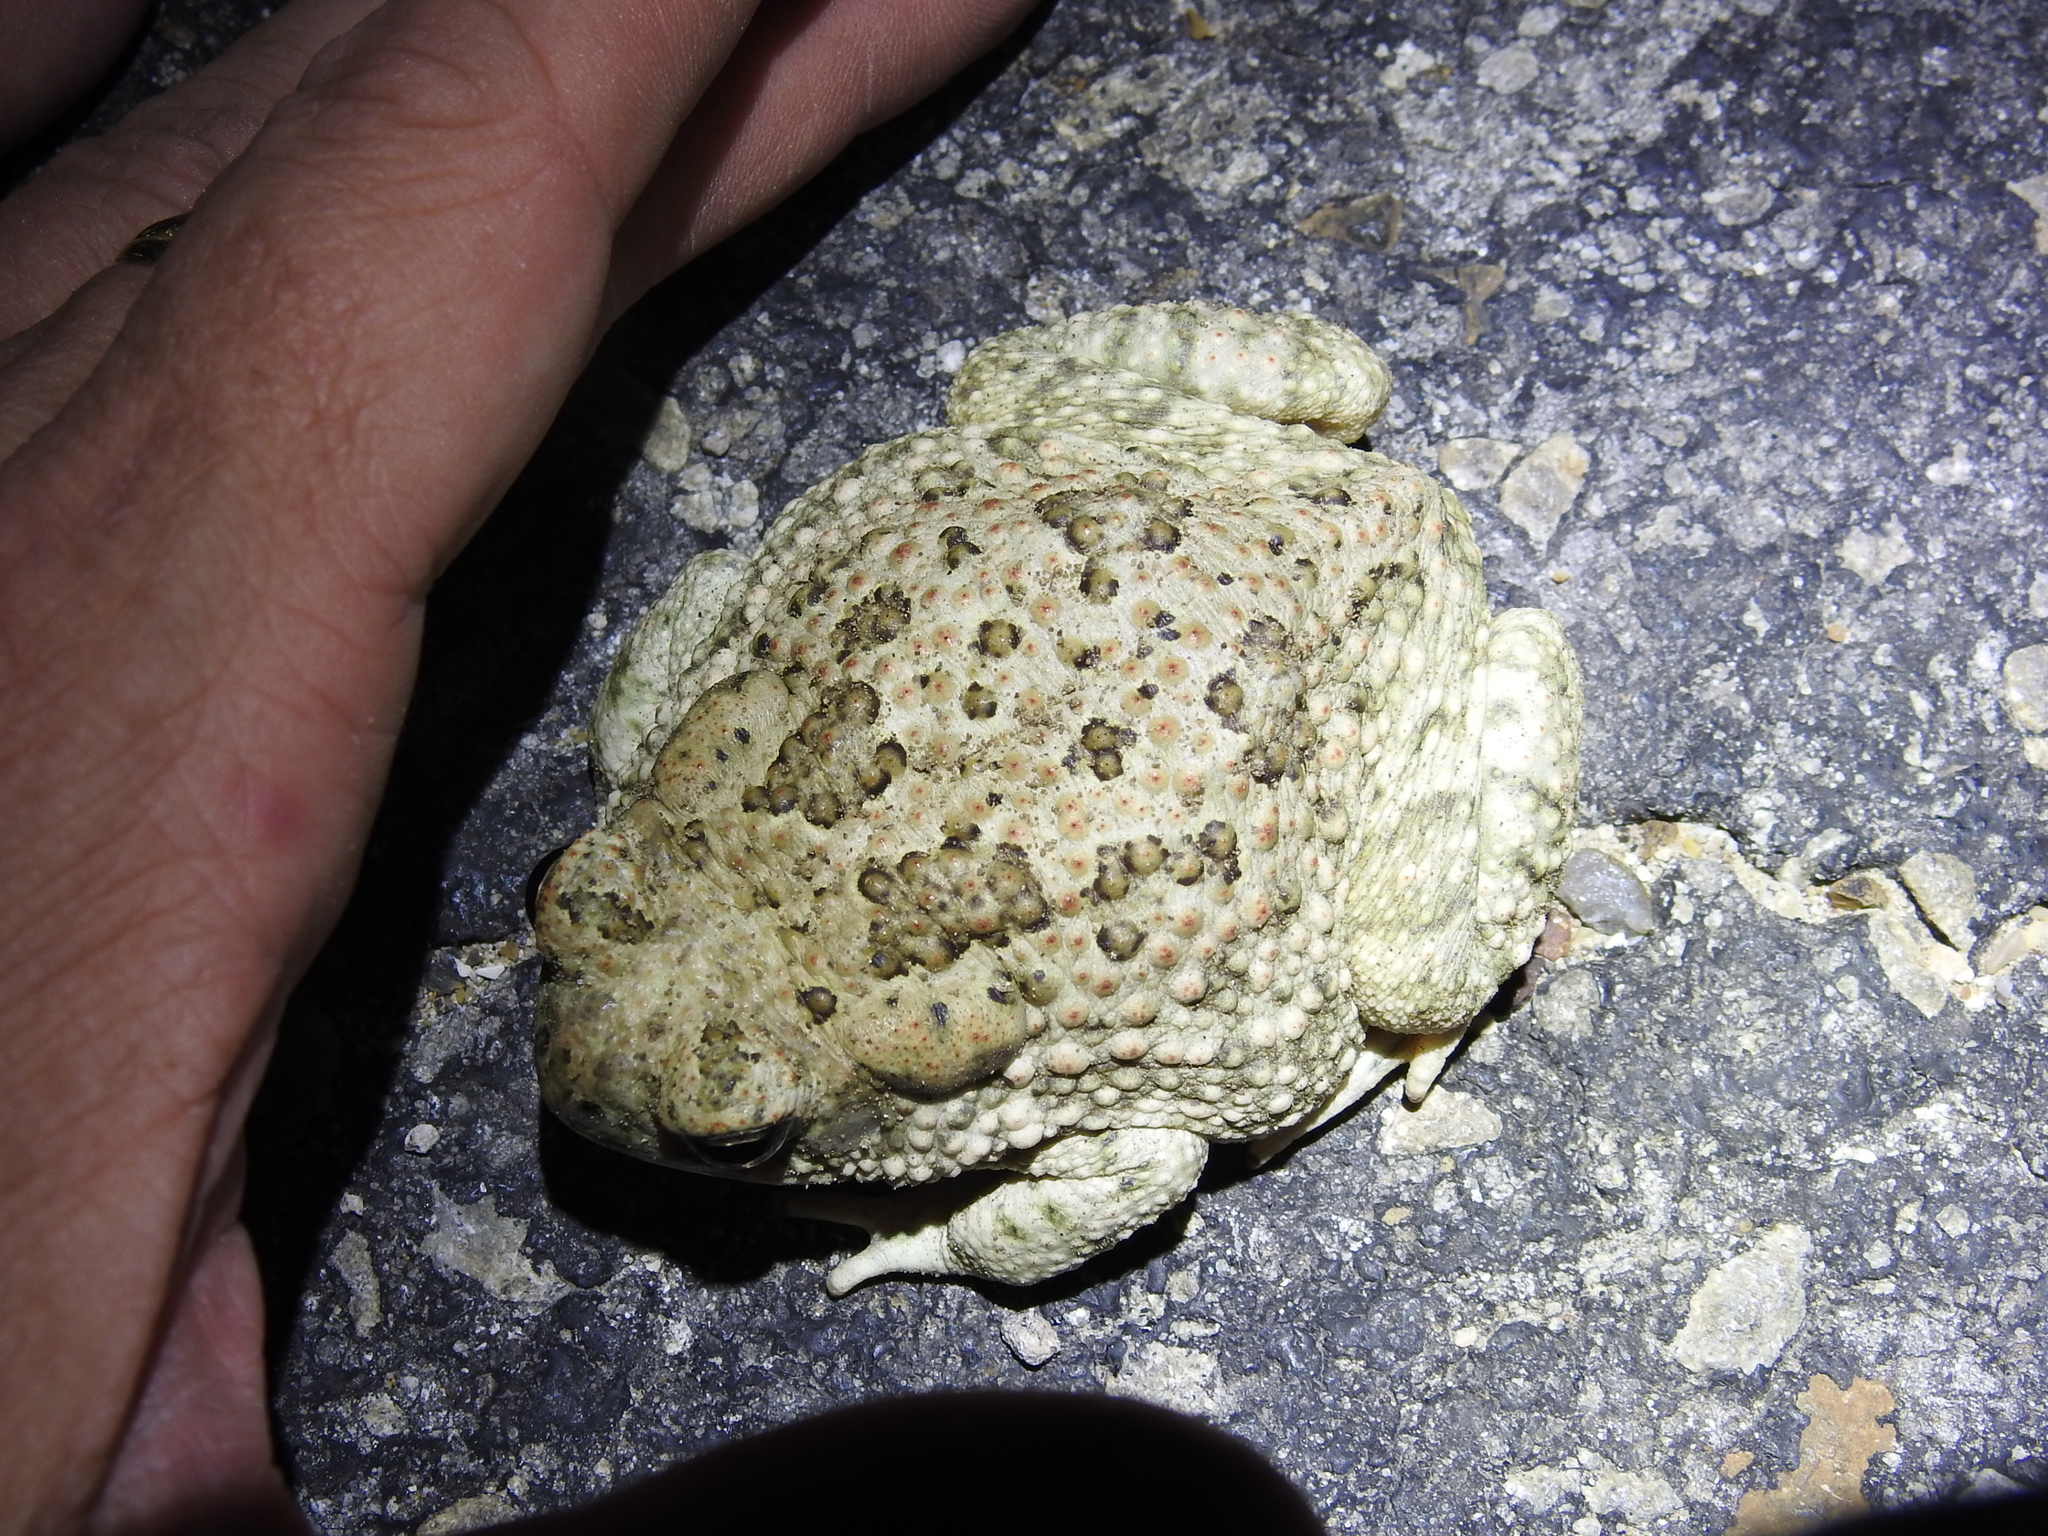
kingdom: Animalia
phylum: Chordata
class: Amphibia
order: Anura
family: Bufonidae
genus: Anaxyrus
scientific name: Anaxyrus speciosus
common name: Texas toad
